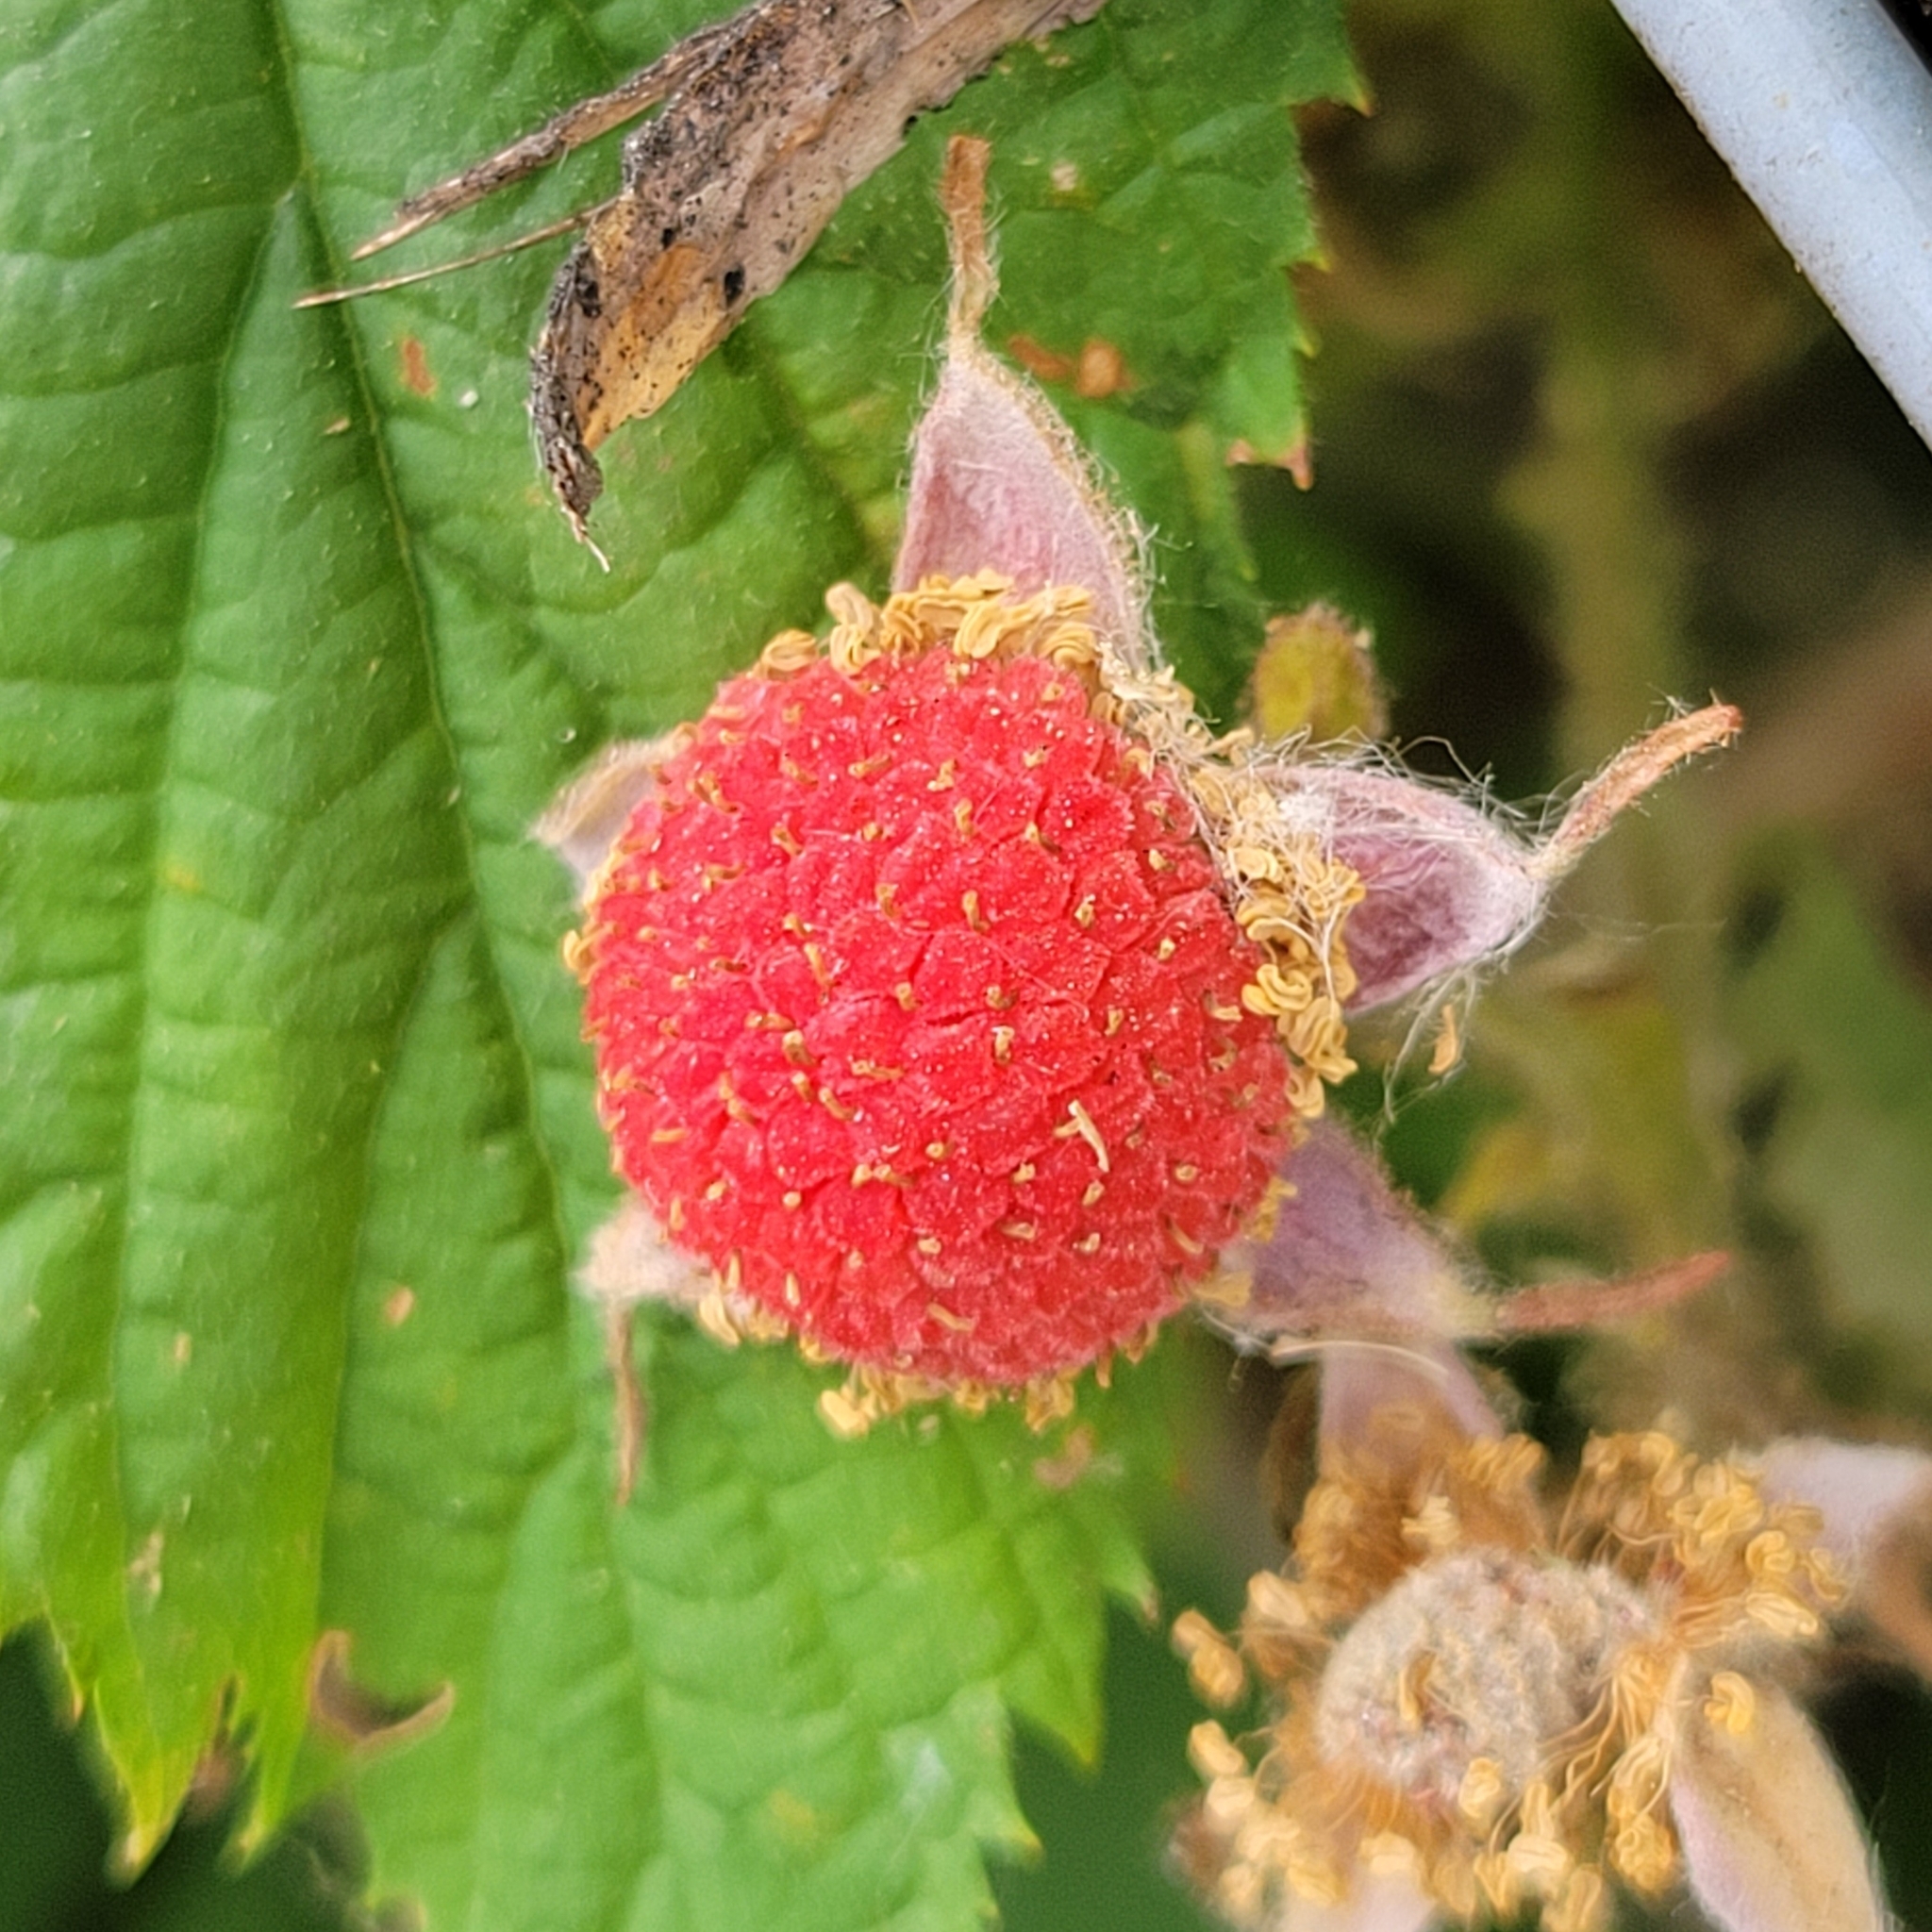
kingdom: Plantae
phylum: Tracheophyta
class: Magnoliopsida
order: Rosales
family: Rosaceae
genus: Rubus
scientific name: Rubus parviflorus
